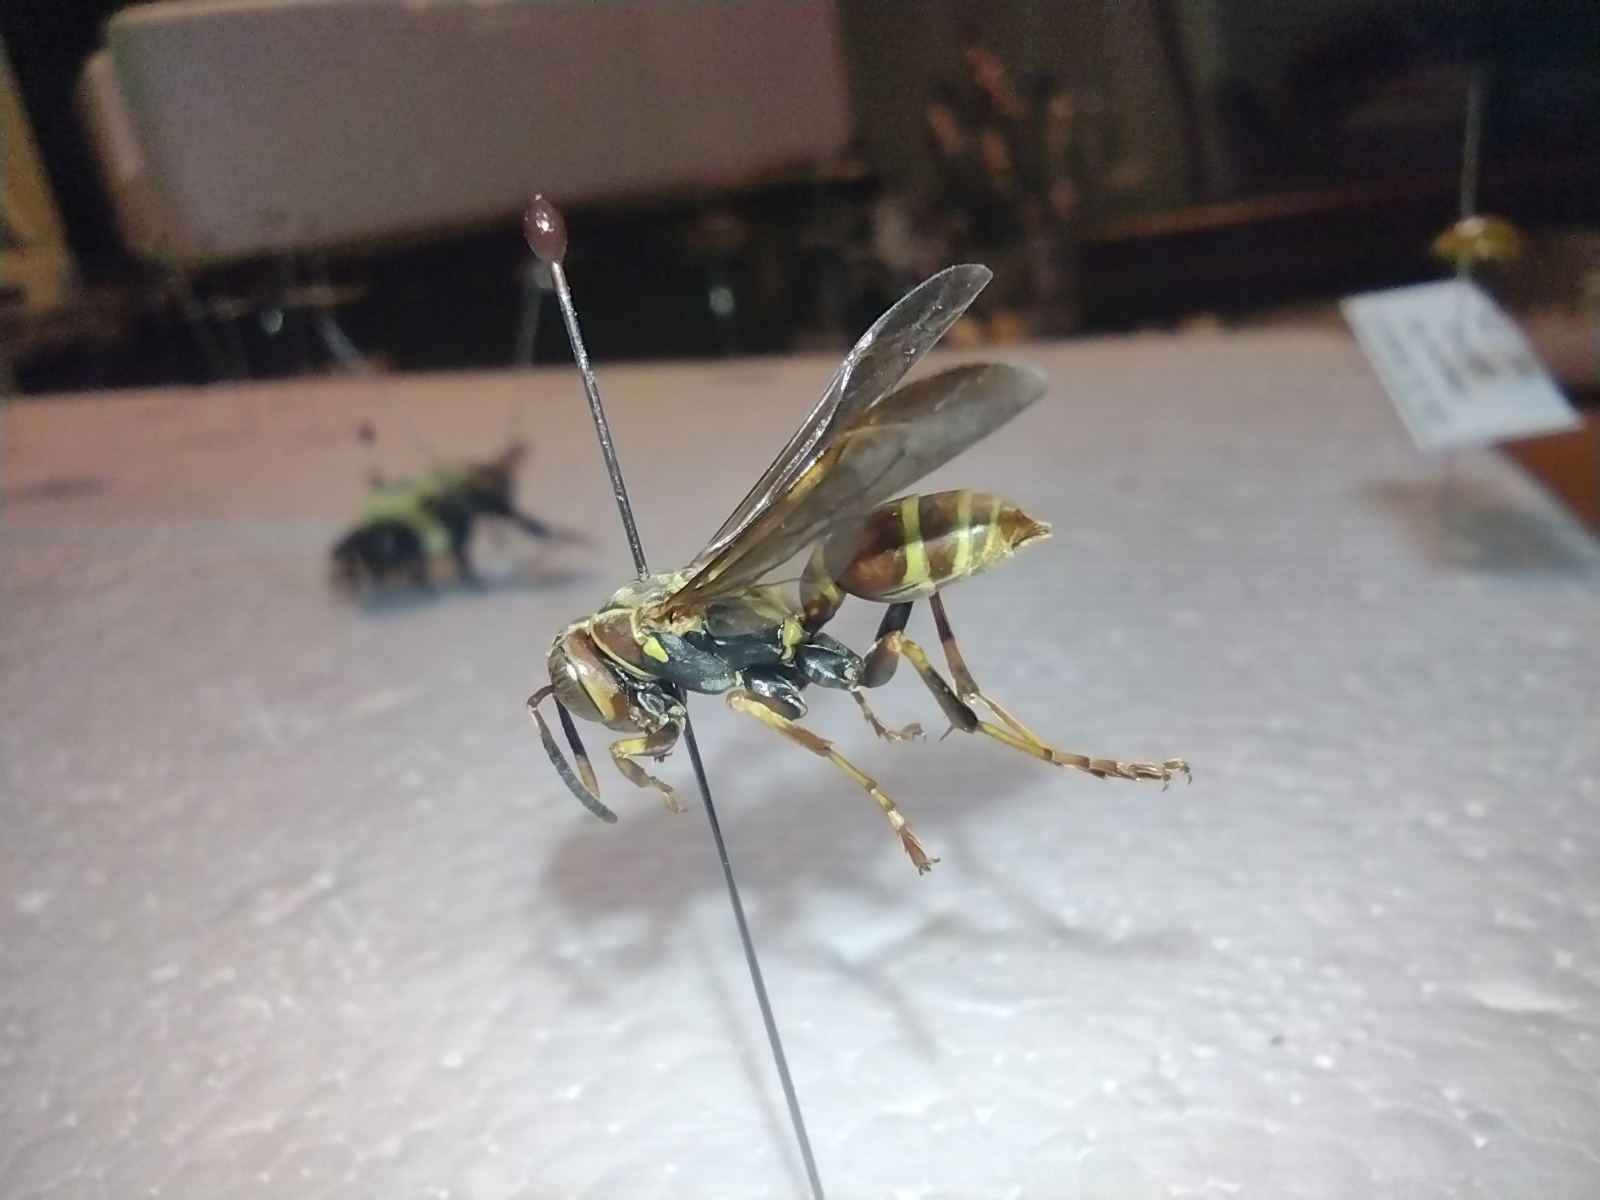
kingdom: Animalia
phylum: Arthropoda
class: Insecta
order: Hymenoptera
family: Eumenidae
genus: Polistes
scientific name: Polistes dorsalis
